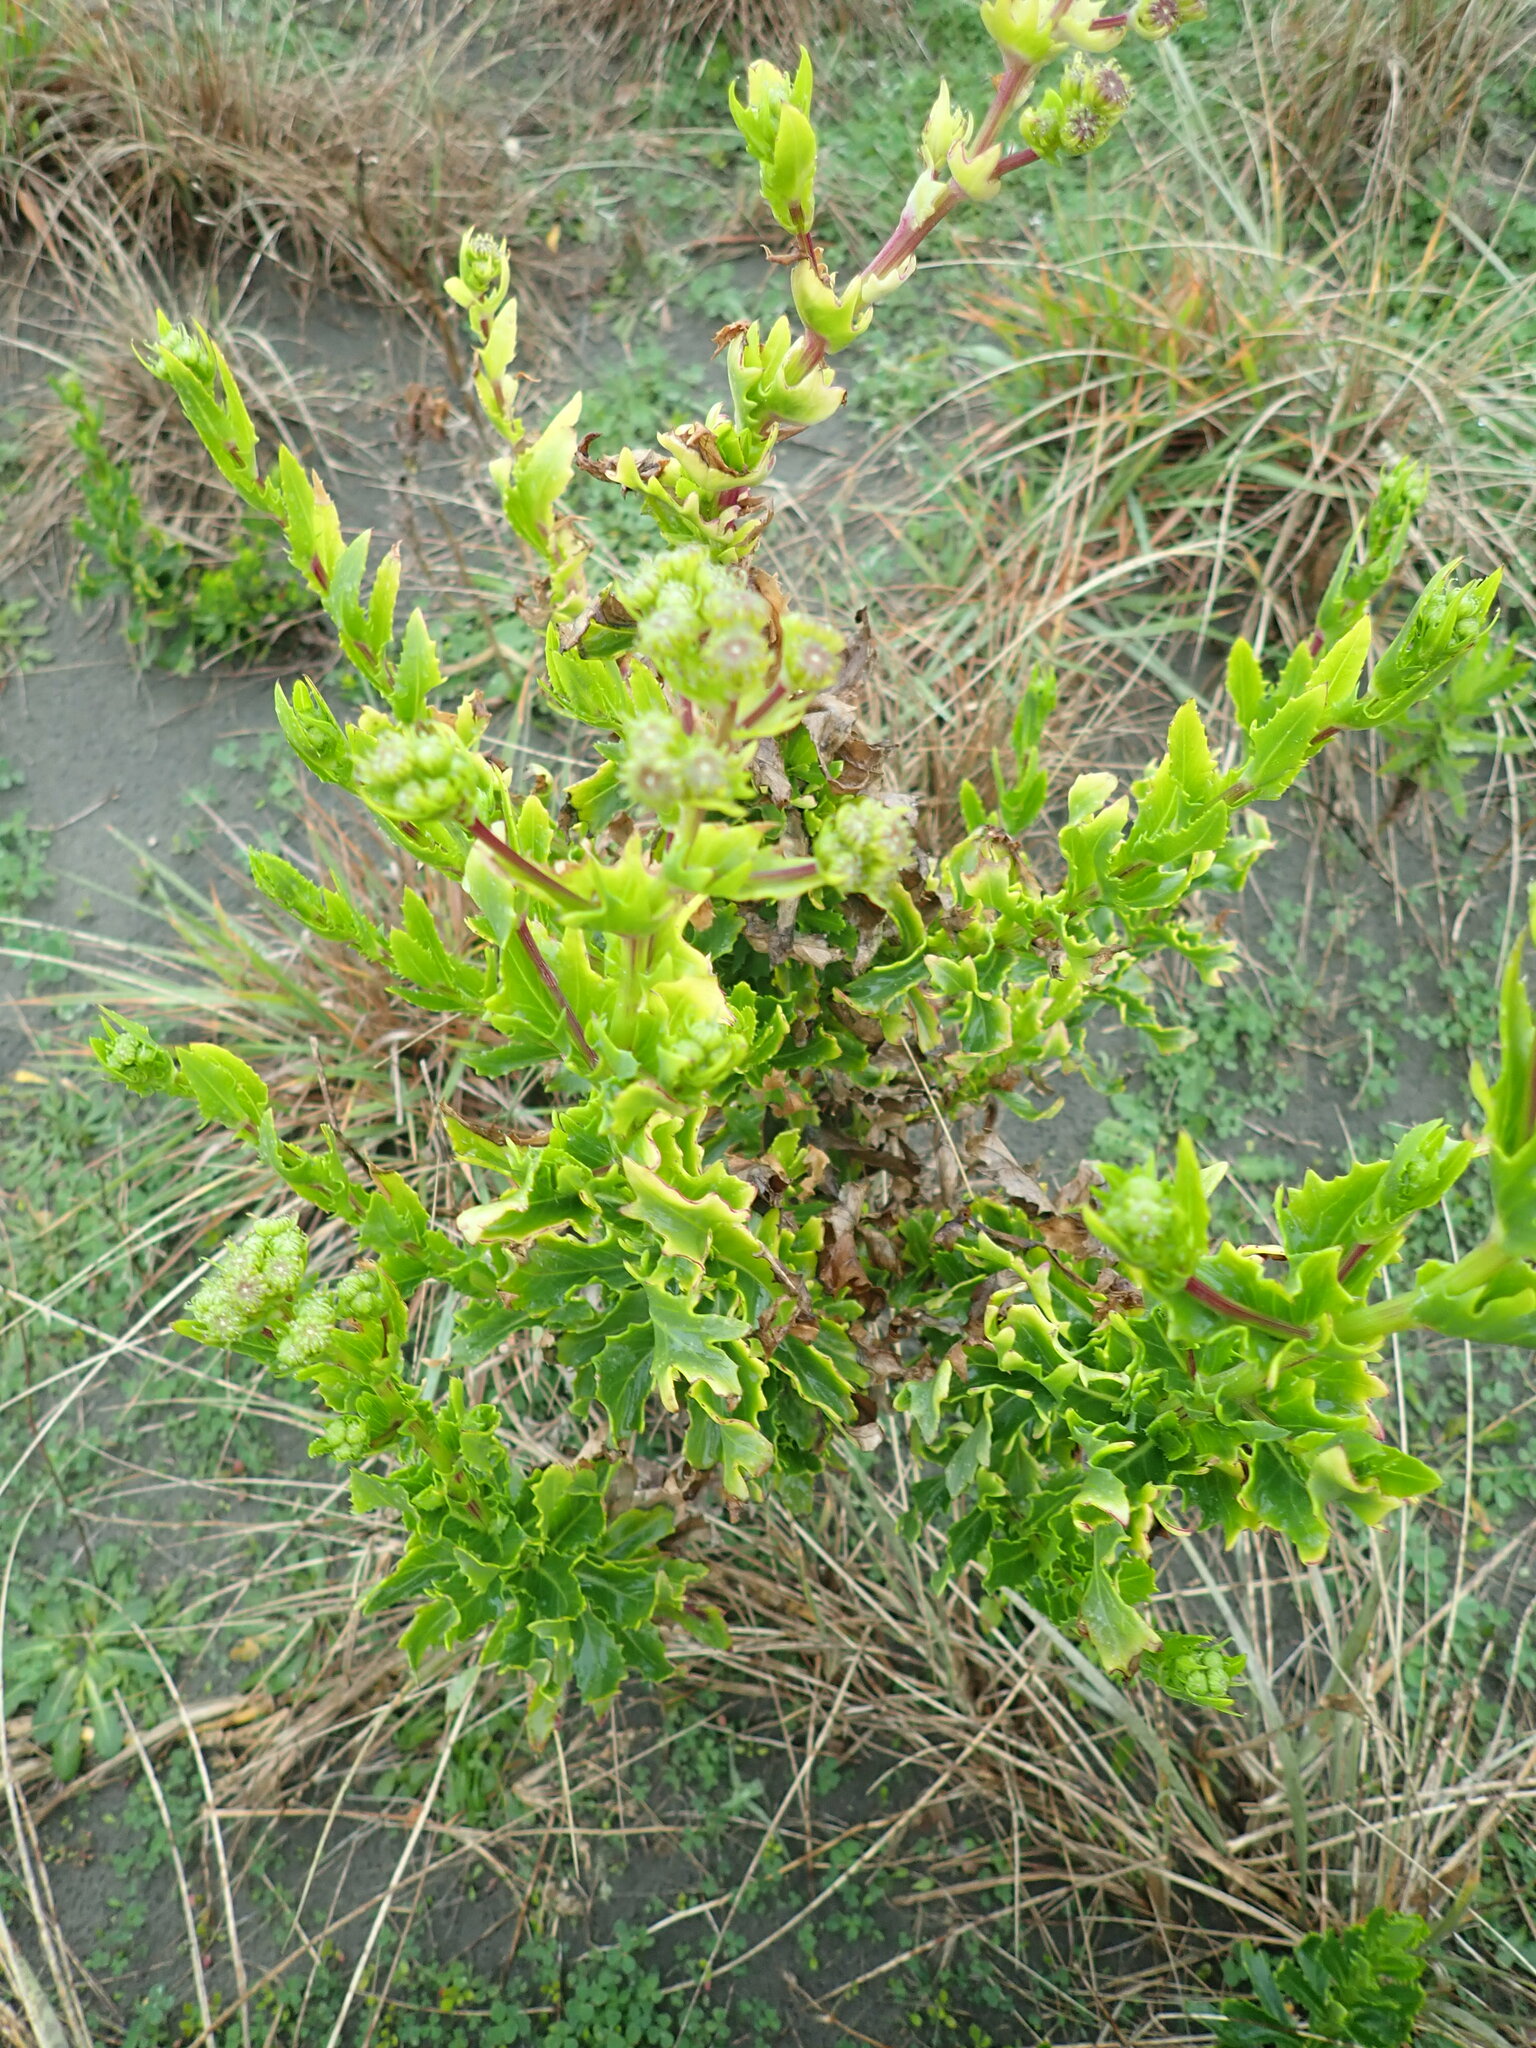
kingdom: Plantae
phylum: Tracheophyta
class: Magnoliopsida
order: Asterales
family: Asteraceae
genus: Senecio
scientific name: Senecio glastifolius
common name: Woad-leaved ragwort
